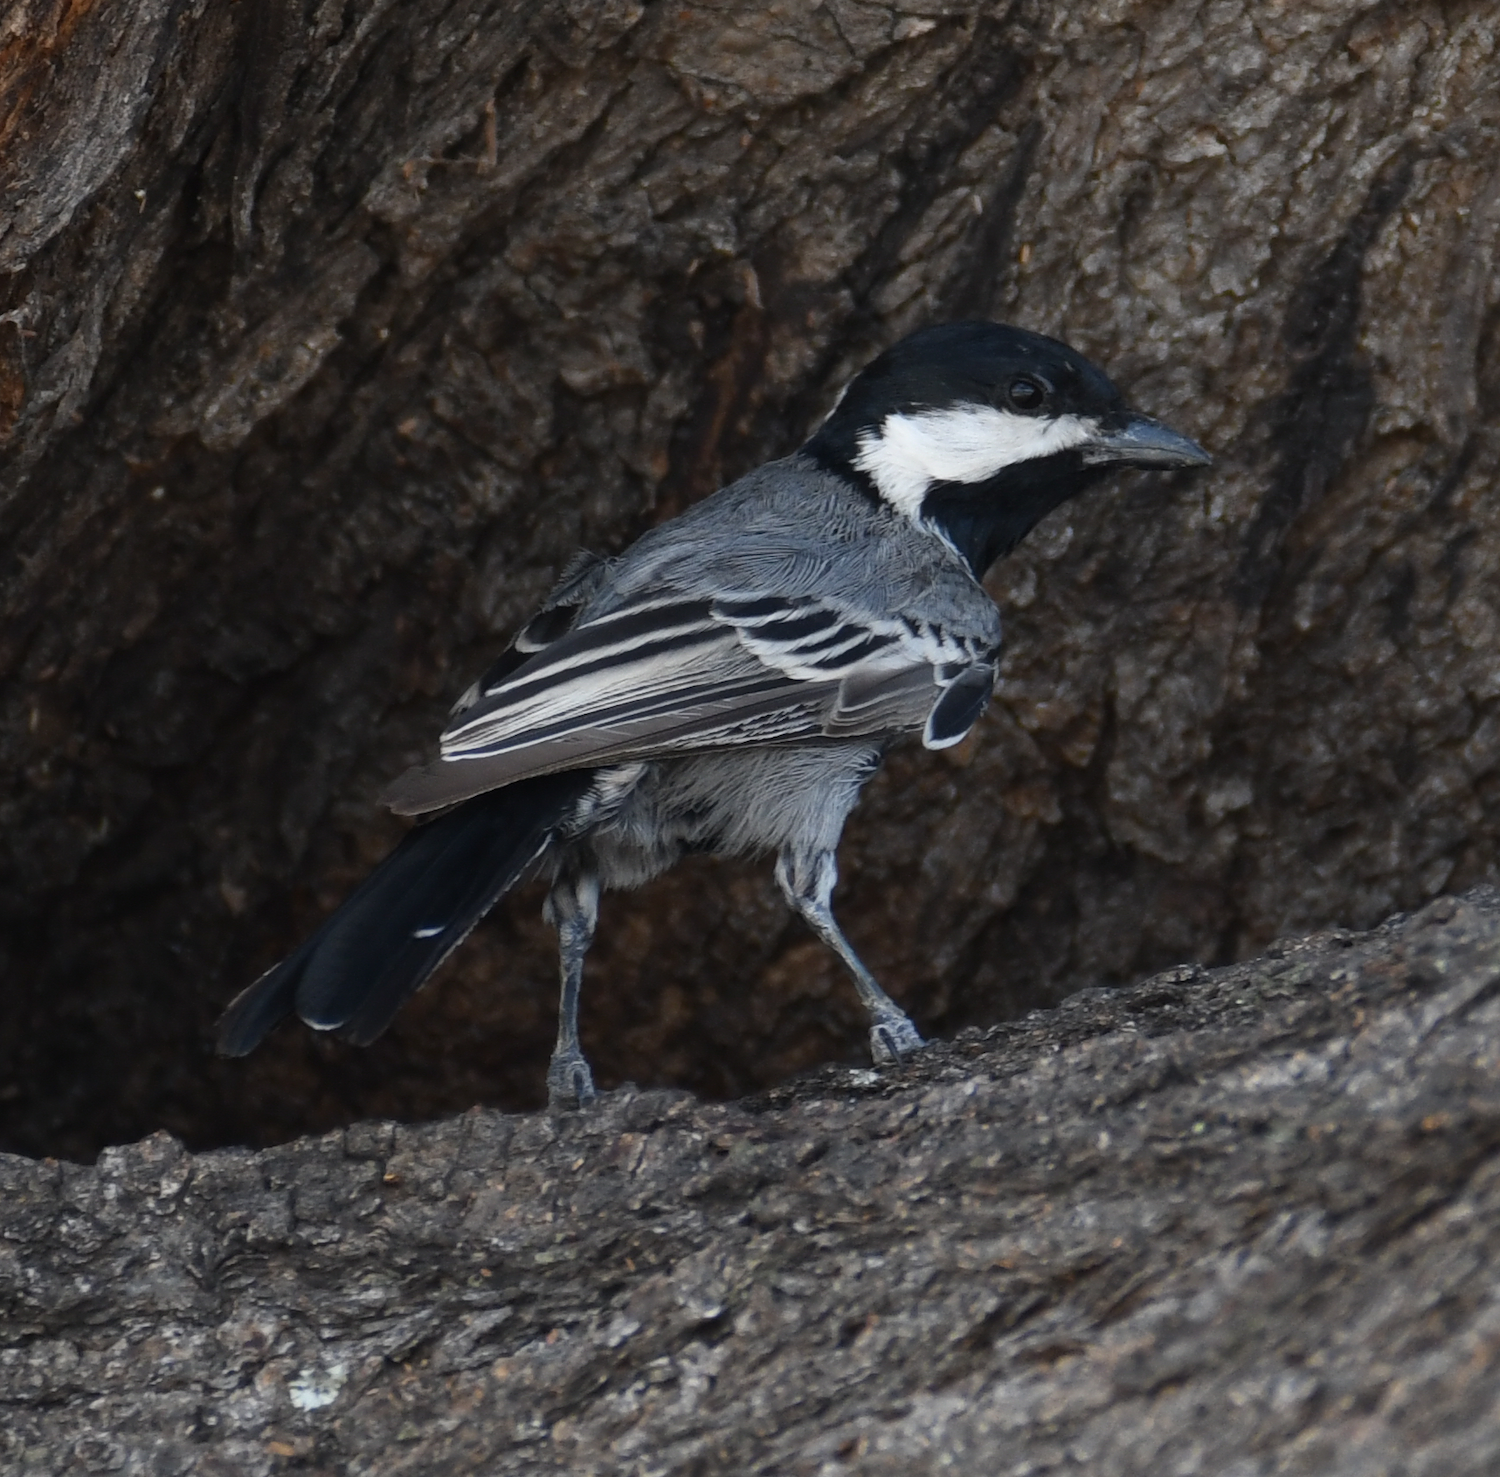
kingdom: Animalia
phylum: Chordata
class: Aves
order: Passeriformes
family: Paridae
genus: Parus
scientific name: Parus cinerascens
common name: Ashy tit
